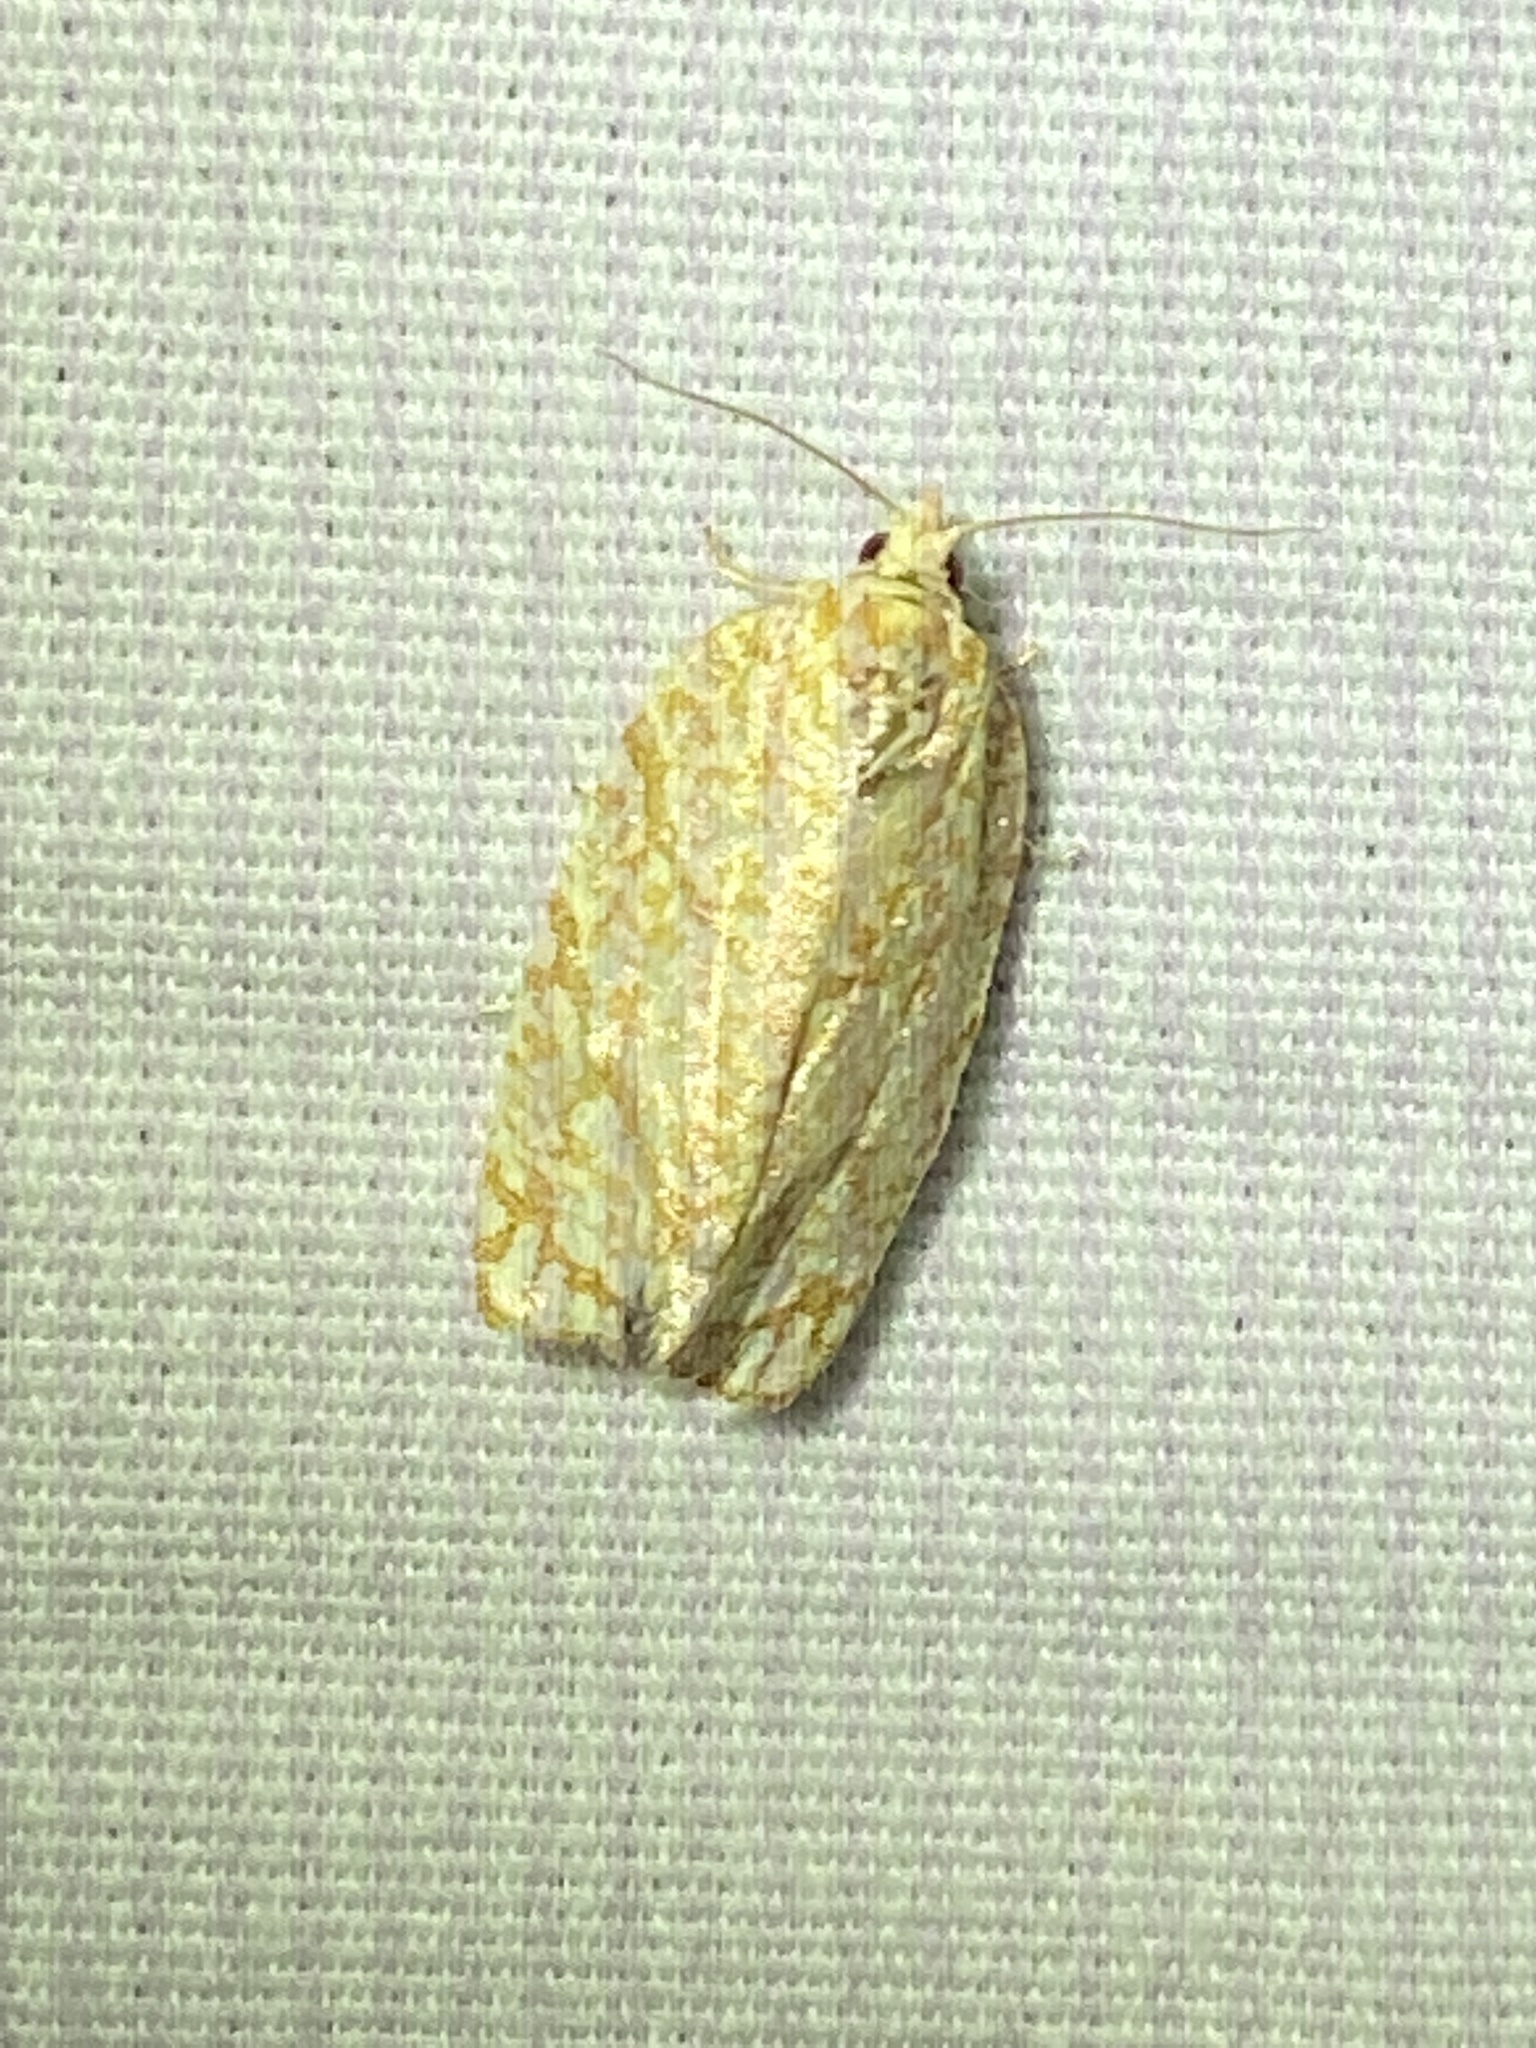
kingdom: Animalia
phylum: Arthropoda
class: Insecta
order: Lepidoptera
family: Tortricidae
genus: Argyrotaenia
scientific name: Argyrotaenia quercifoliana
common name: Yellow-winged oak leafroller moth
